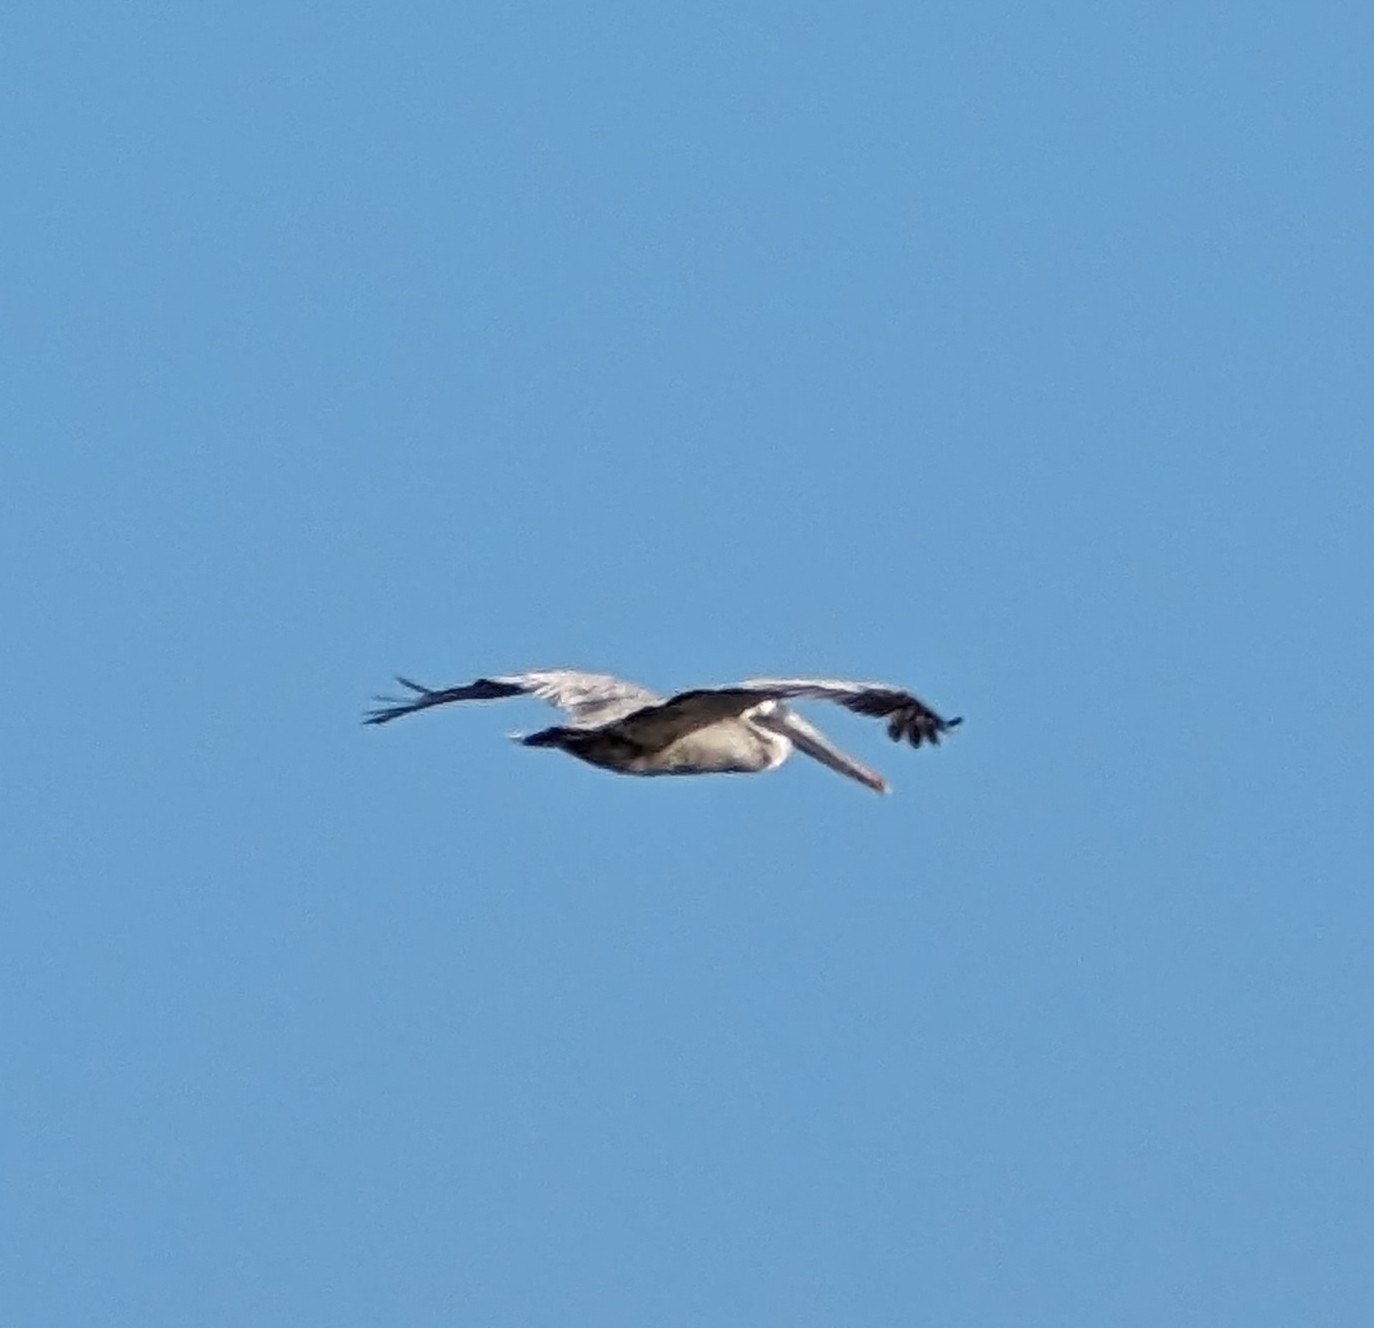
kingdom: Animalia
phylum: Chordata
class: Aves
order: Pelecaniformes
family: Pelecanidae
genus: Pelecanus
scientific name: Pelecanus occidentalis
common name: Brown pelican
